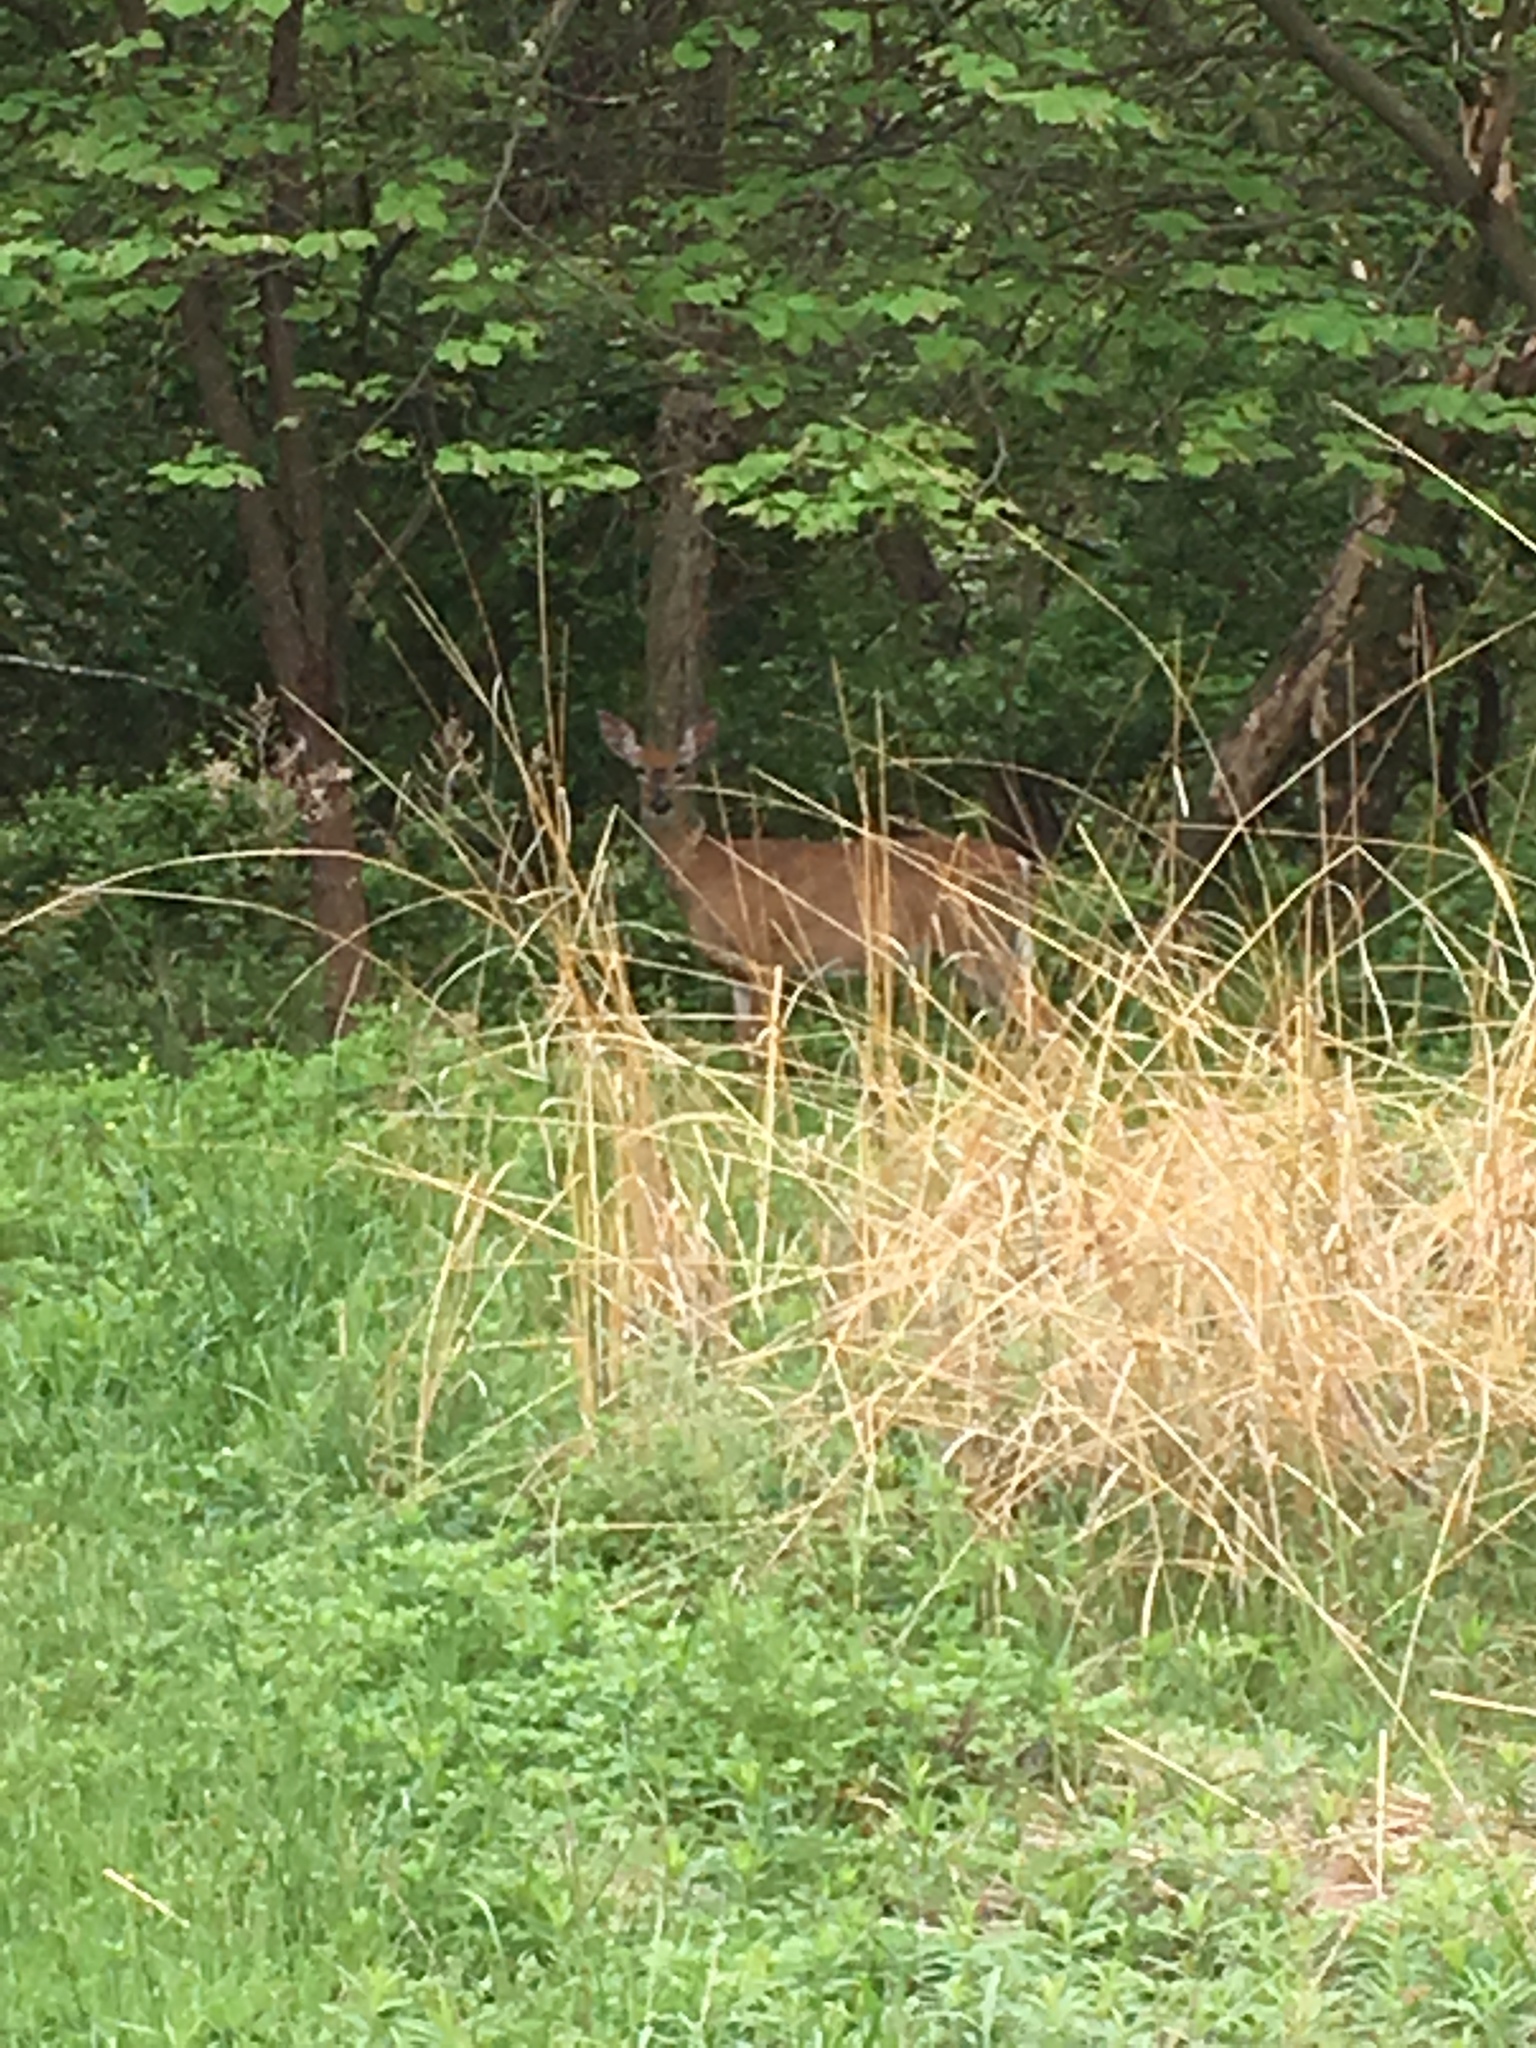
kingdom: Animalia
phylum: Chordata
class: Mammalia
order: Artiodactyla
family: Cervidae
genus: Odocoileus
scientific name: Odocoileus virginianus
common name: White-tailed deer
